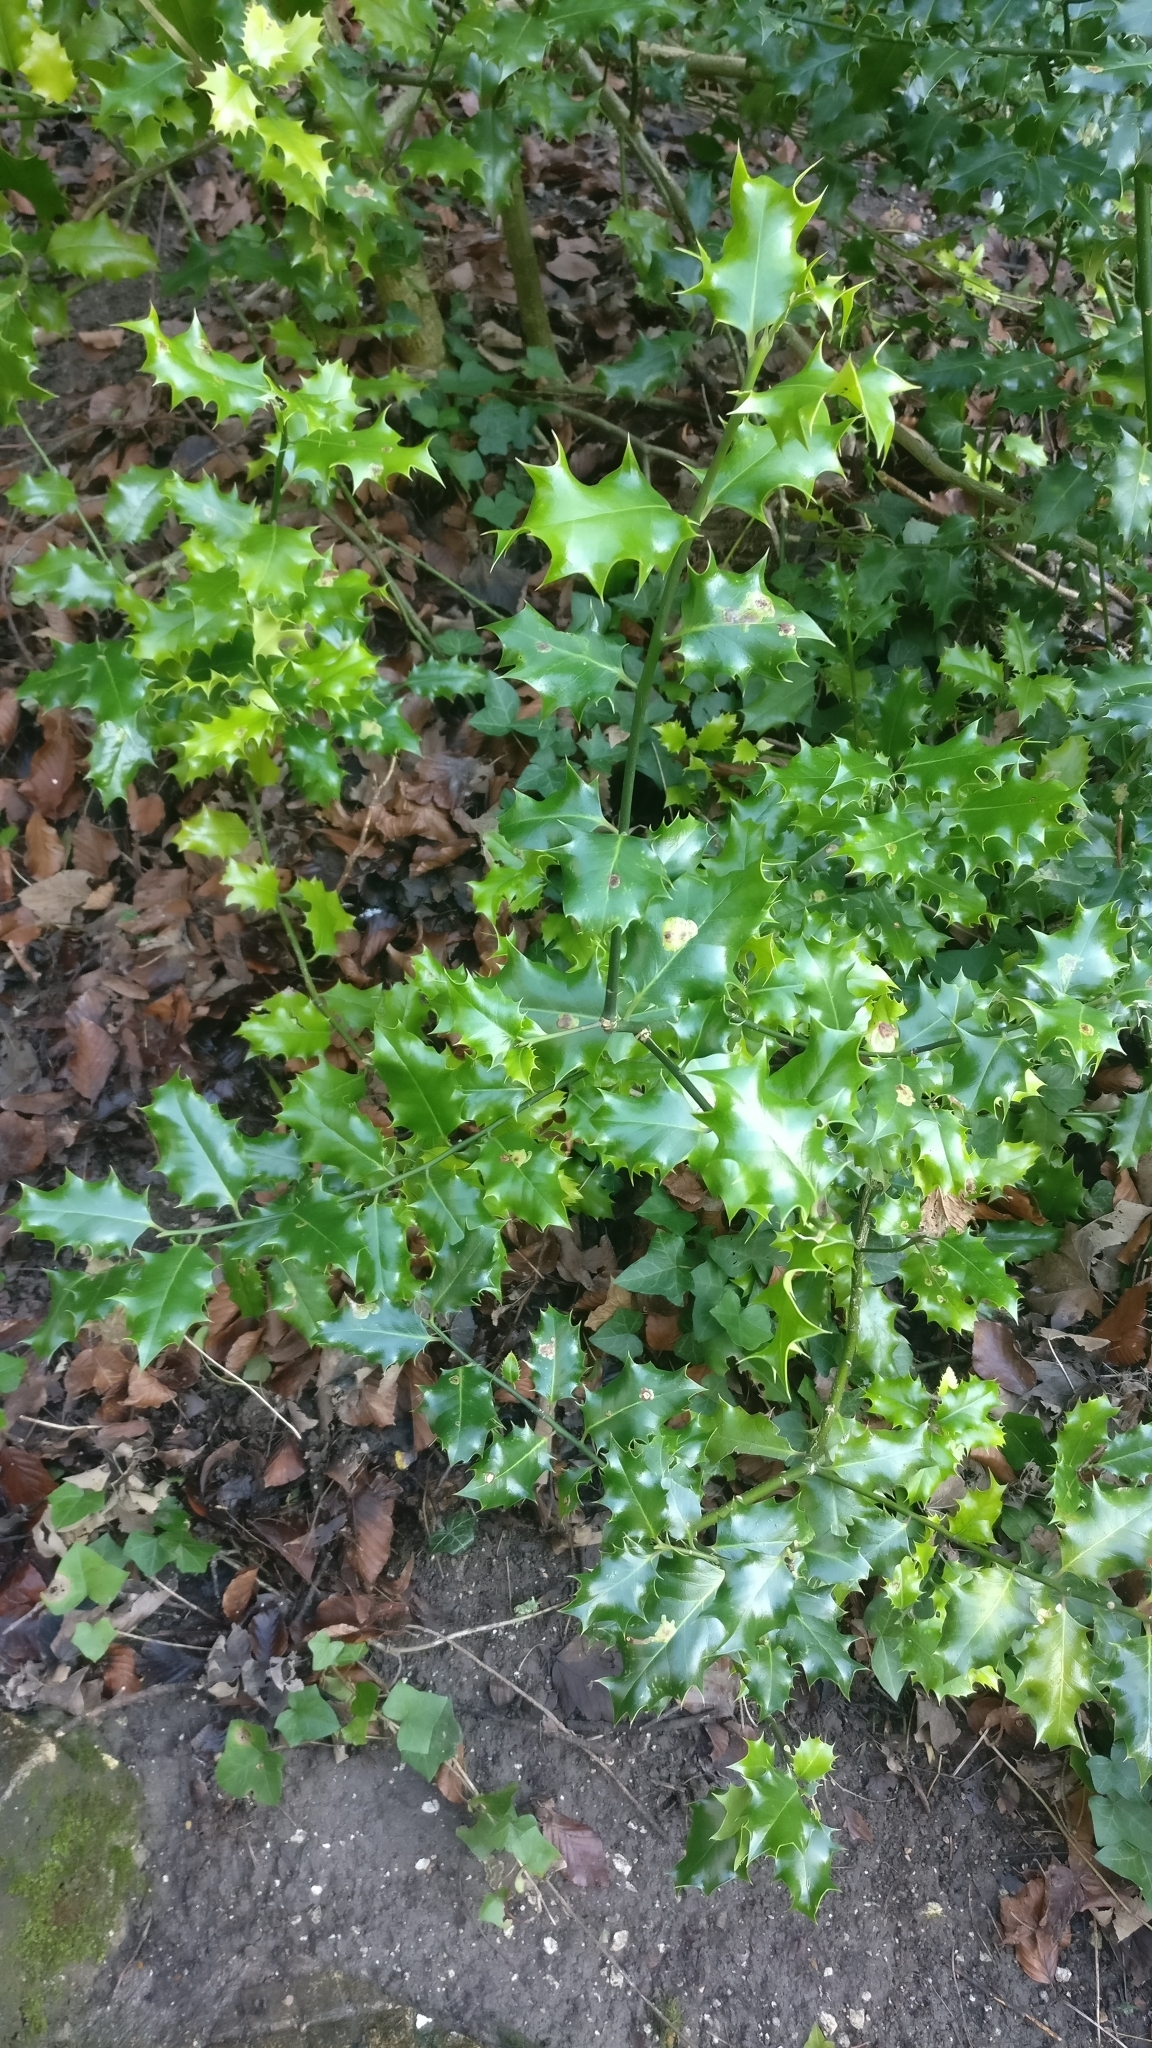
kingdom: Plantae
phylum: Tracheophyta
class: Magnoliopsida
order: Aquifoliales
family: Aquifoliaceae
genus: Ilex
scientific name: Ilex aquifolium
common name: English holly
